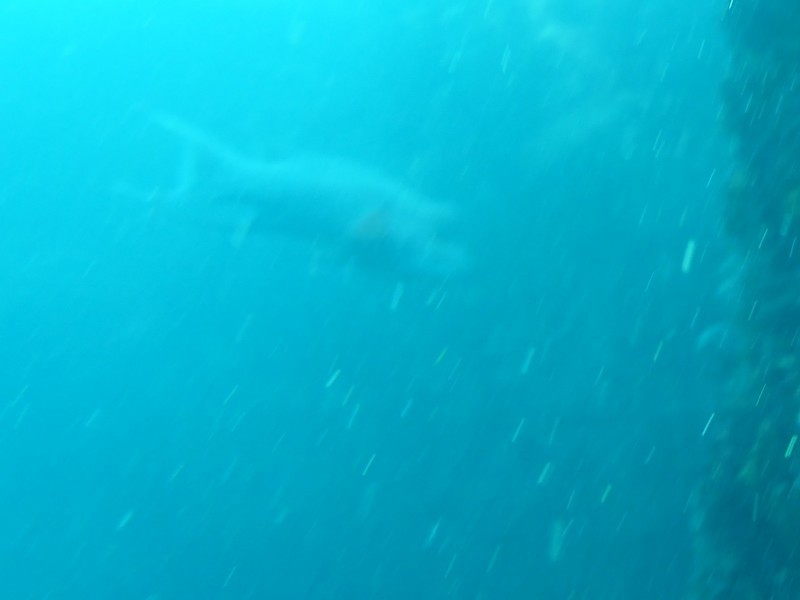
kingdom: Animalia
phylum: Chordata
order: Perciformes
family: Labridae
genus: Bodianus
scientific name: Bodianus diplotaenia
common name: Mexican hogfish
